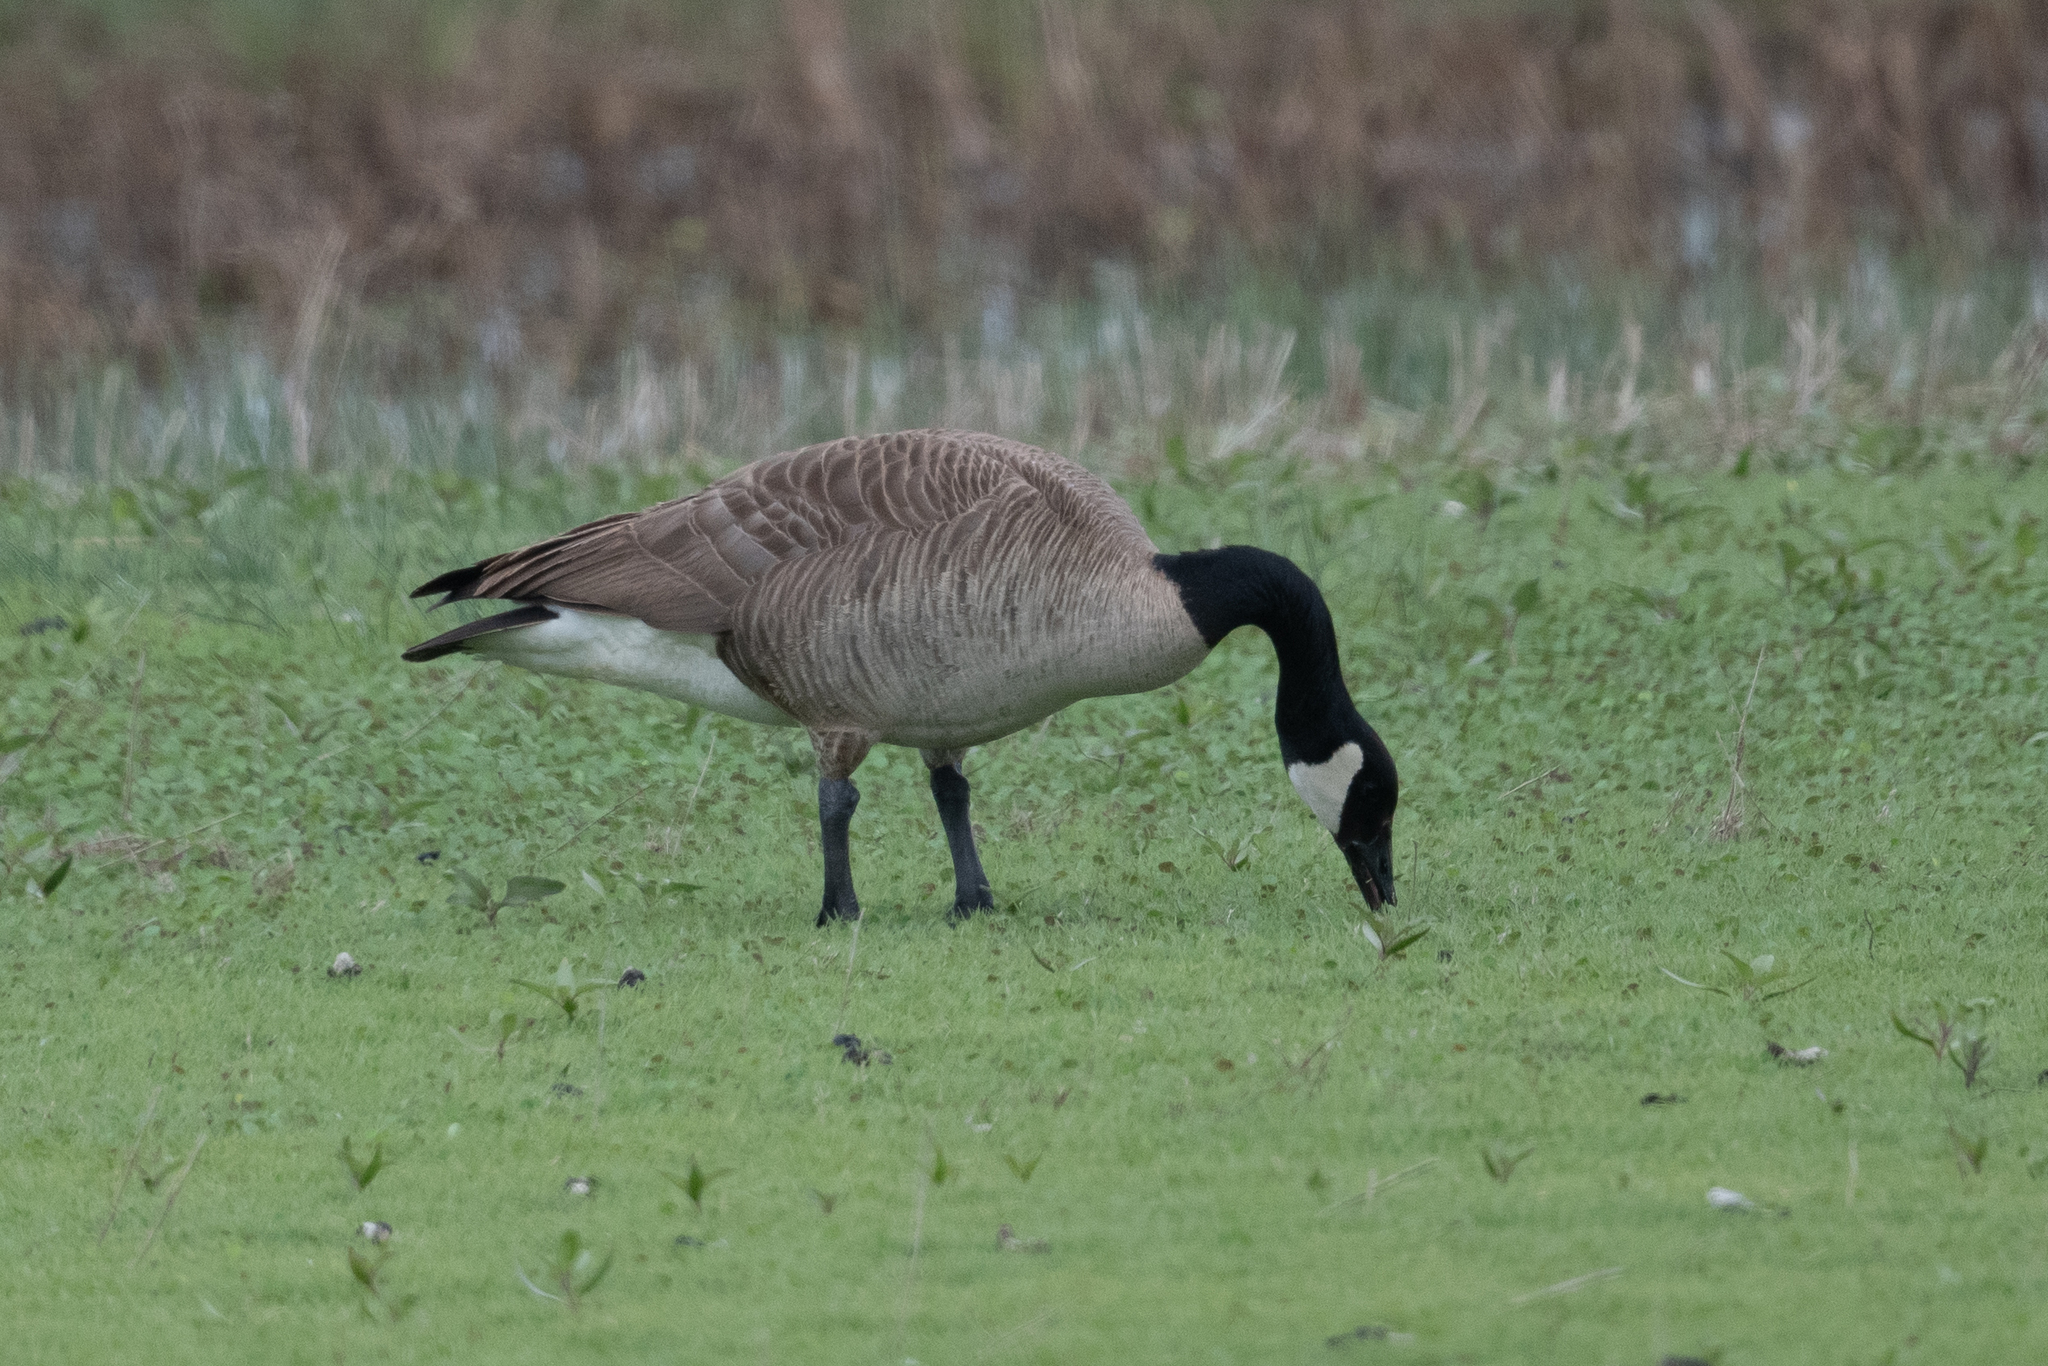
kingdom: Animalia
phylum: Chordata
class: Aves
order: Anseriformes
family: Anatidae
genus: Branta
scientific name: Branta canadensis
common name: Canada goose
